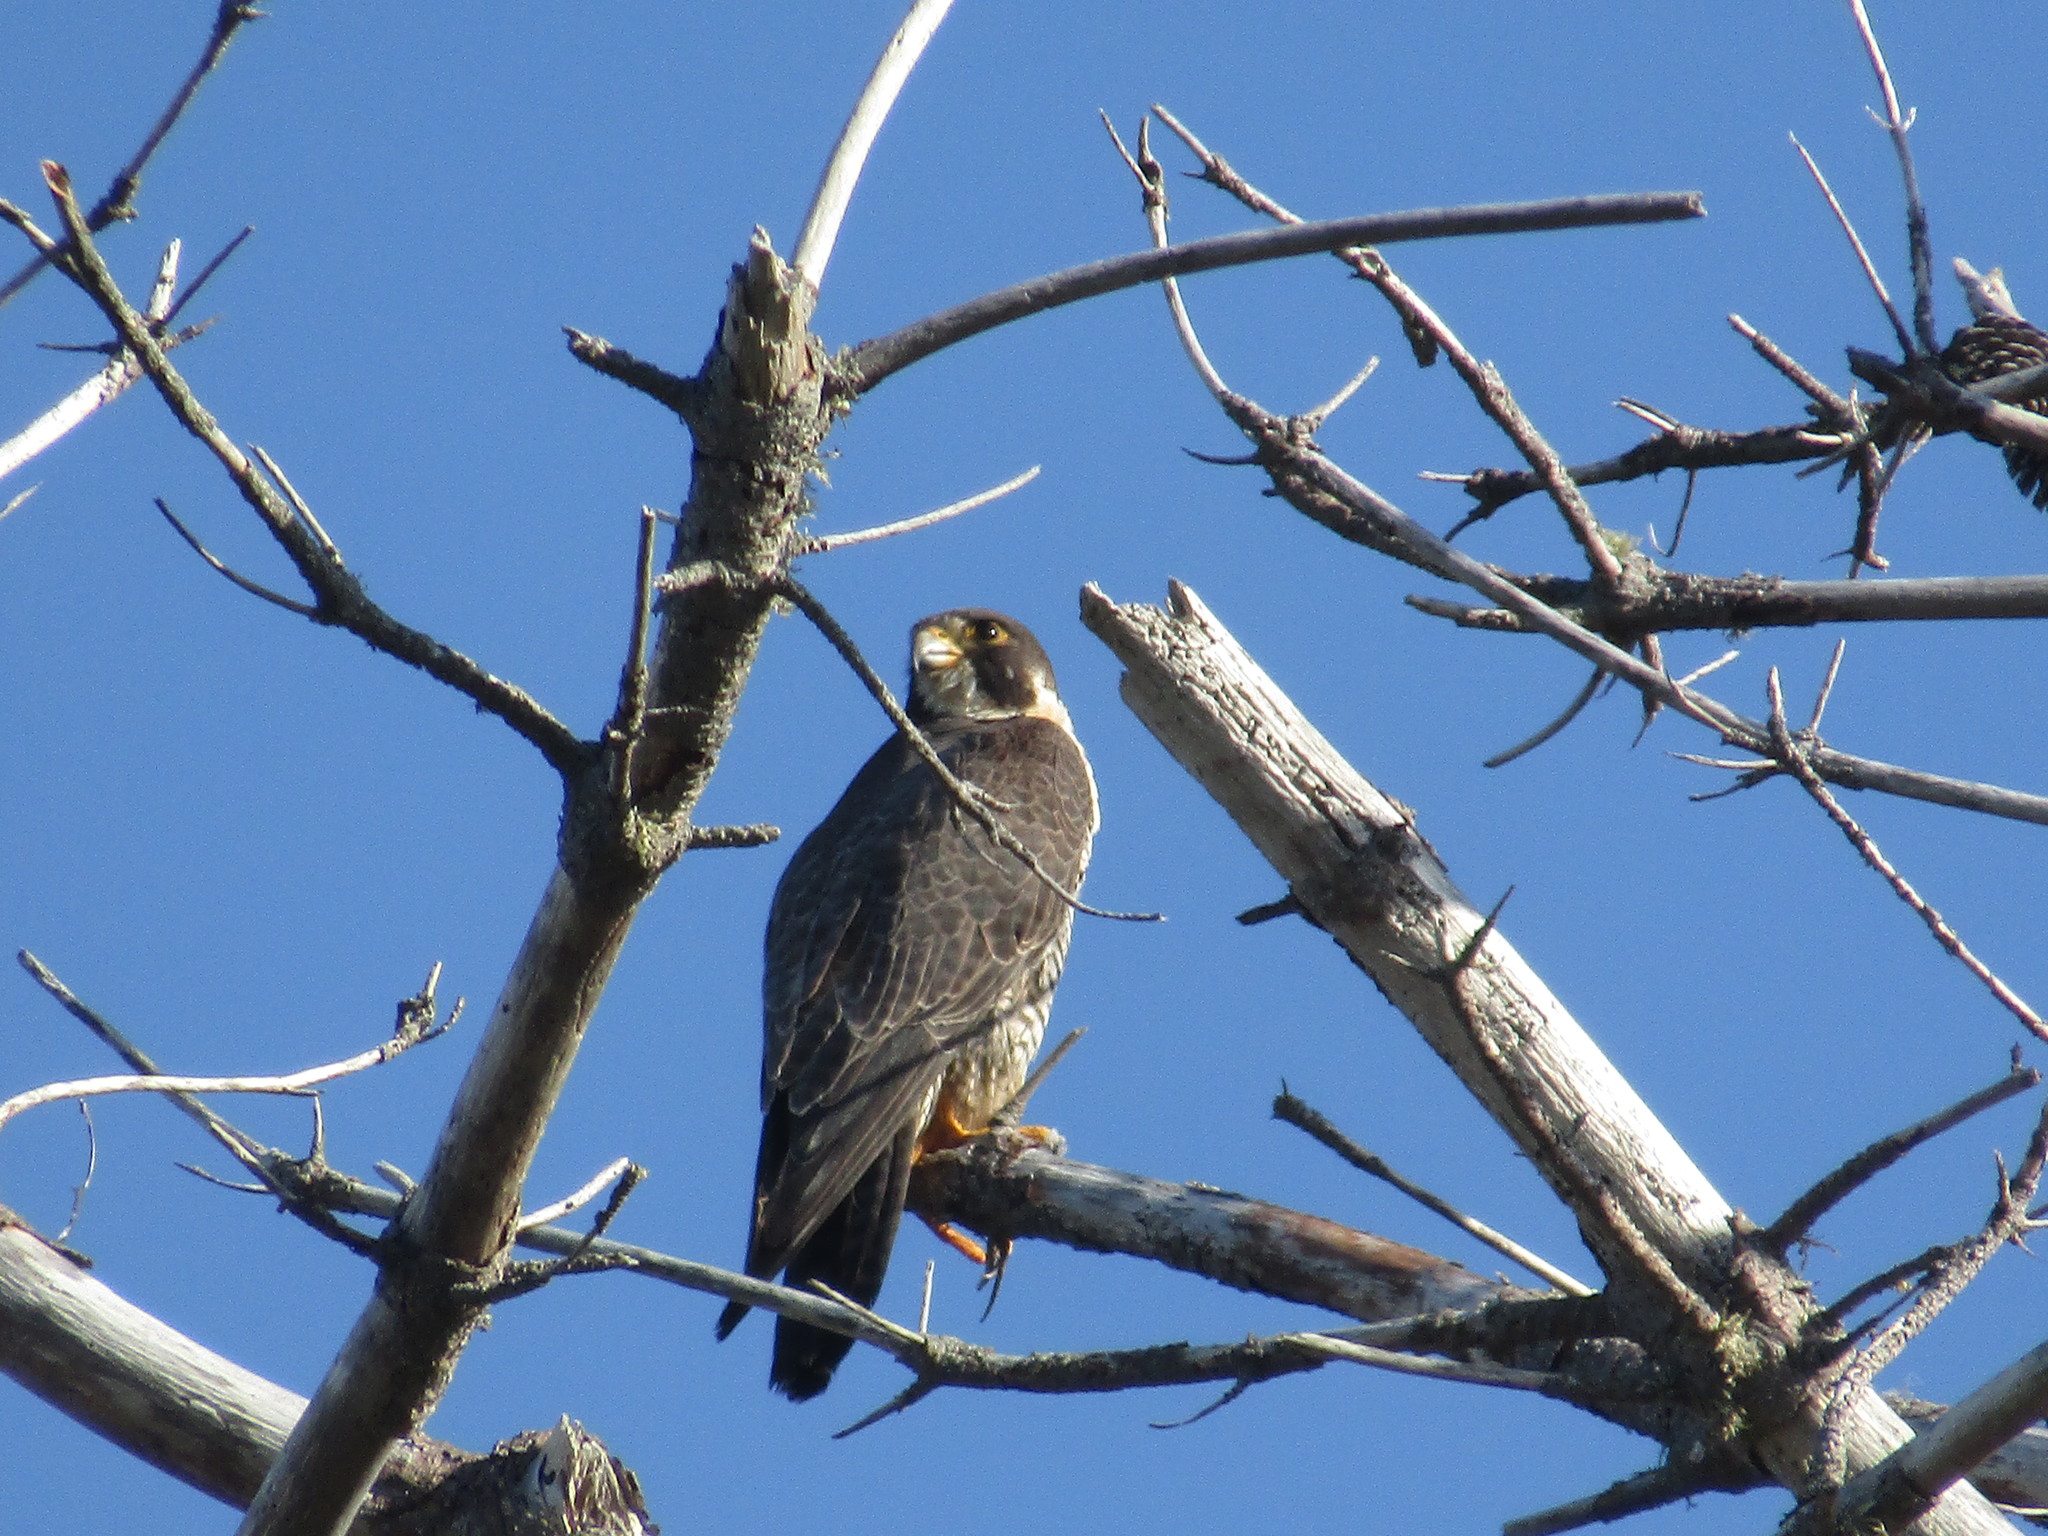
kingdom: Animalia
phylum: Chordata
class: Aves
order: Falconiformes
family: Falconidae
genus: Falco
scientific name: Falco peregrinus
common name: Peregrine falcon
